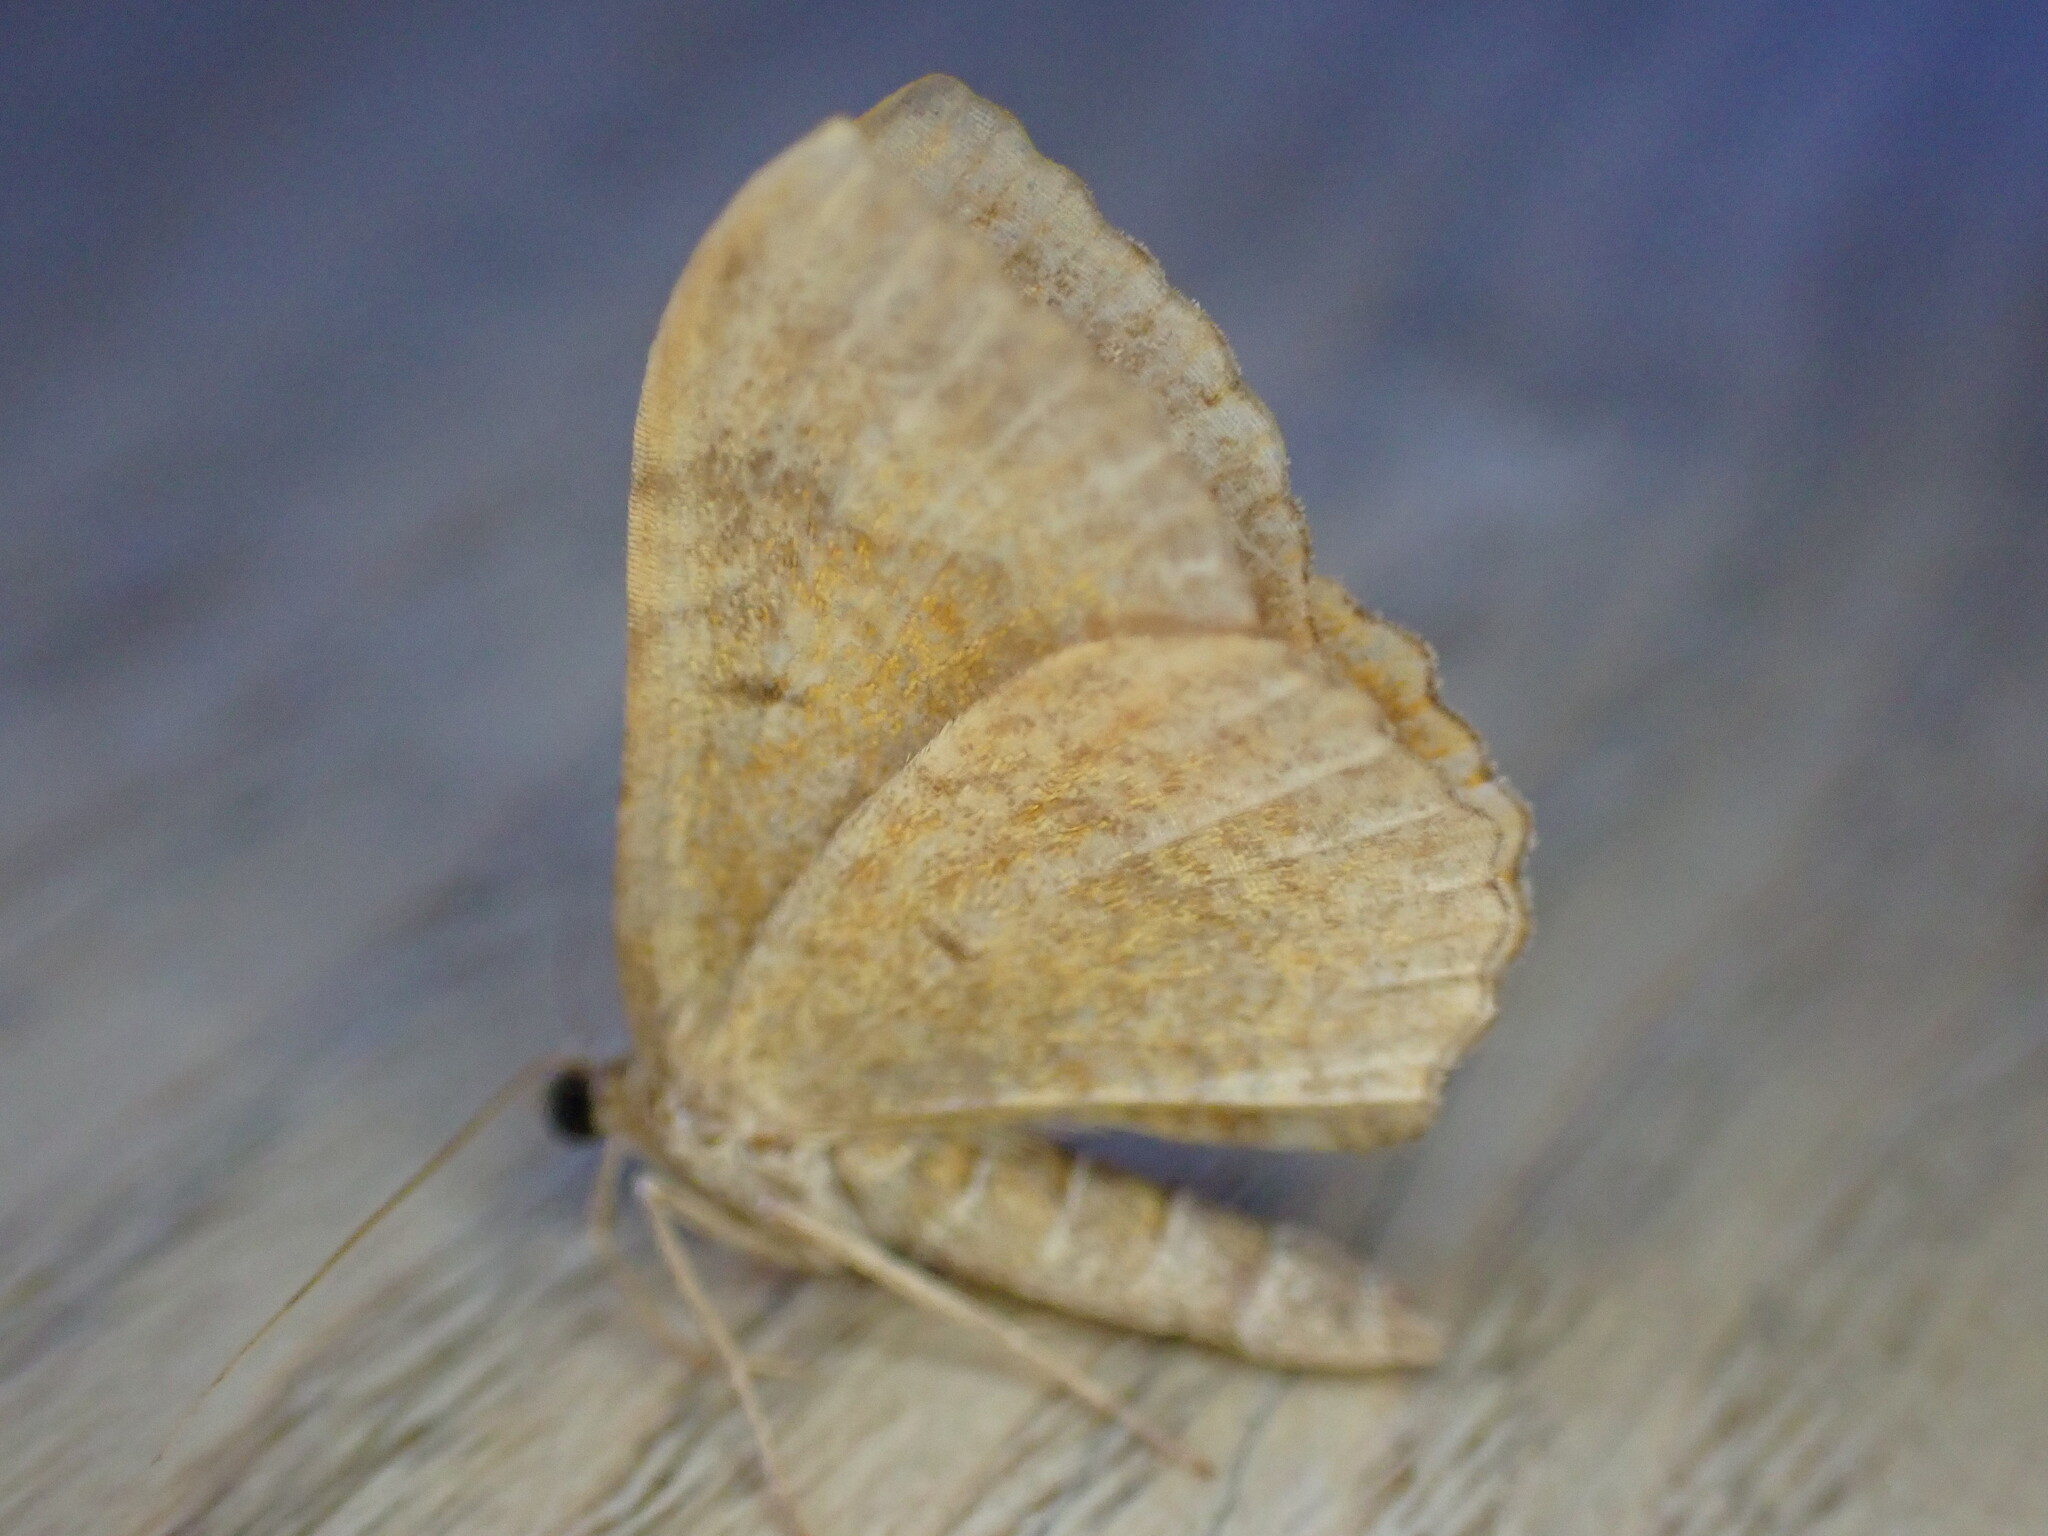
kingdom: Animalia
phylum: Arthropoda
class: Insecta
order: Lepidoptera
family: Geometridae
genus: Camptogramma
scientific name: Camptogramma bilineata
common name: Yellow shell
